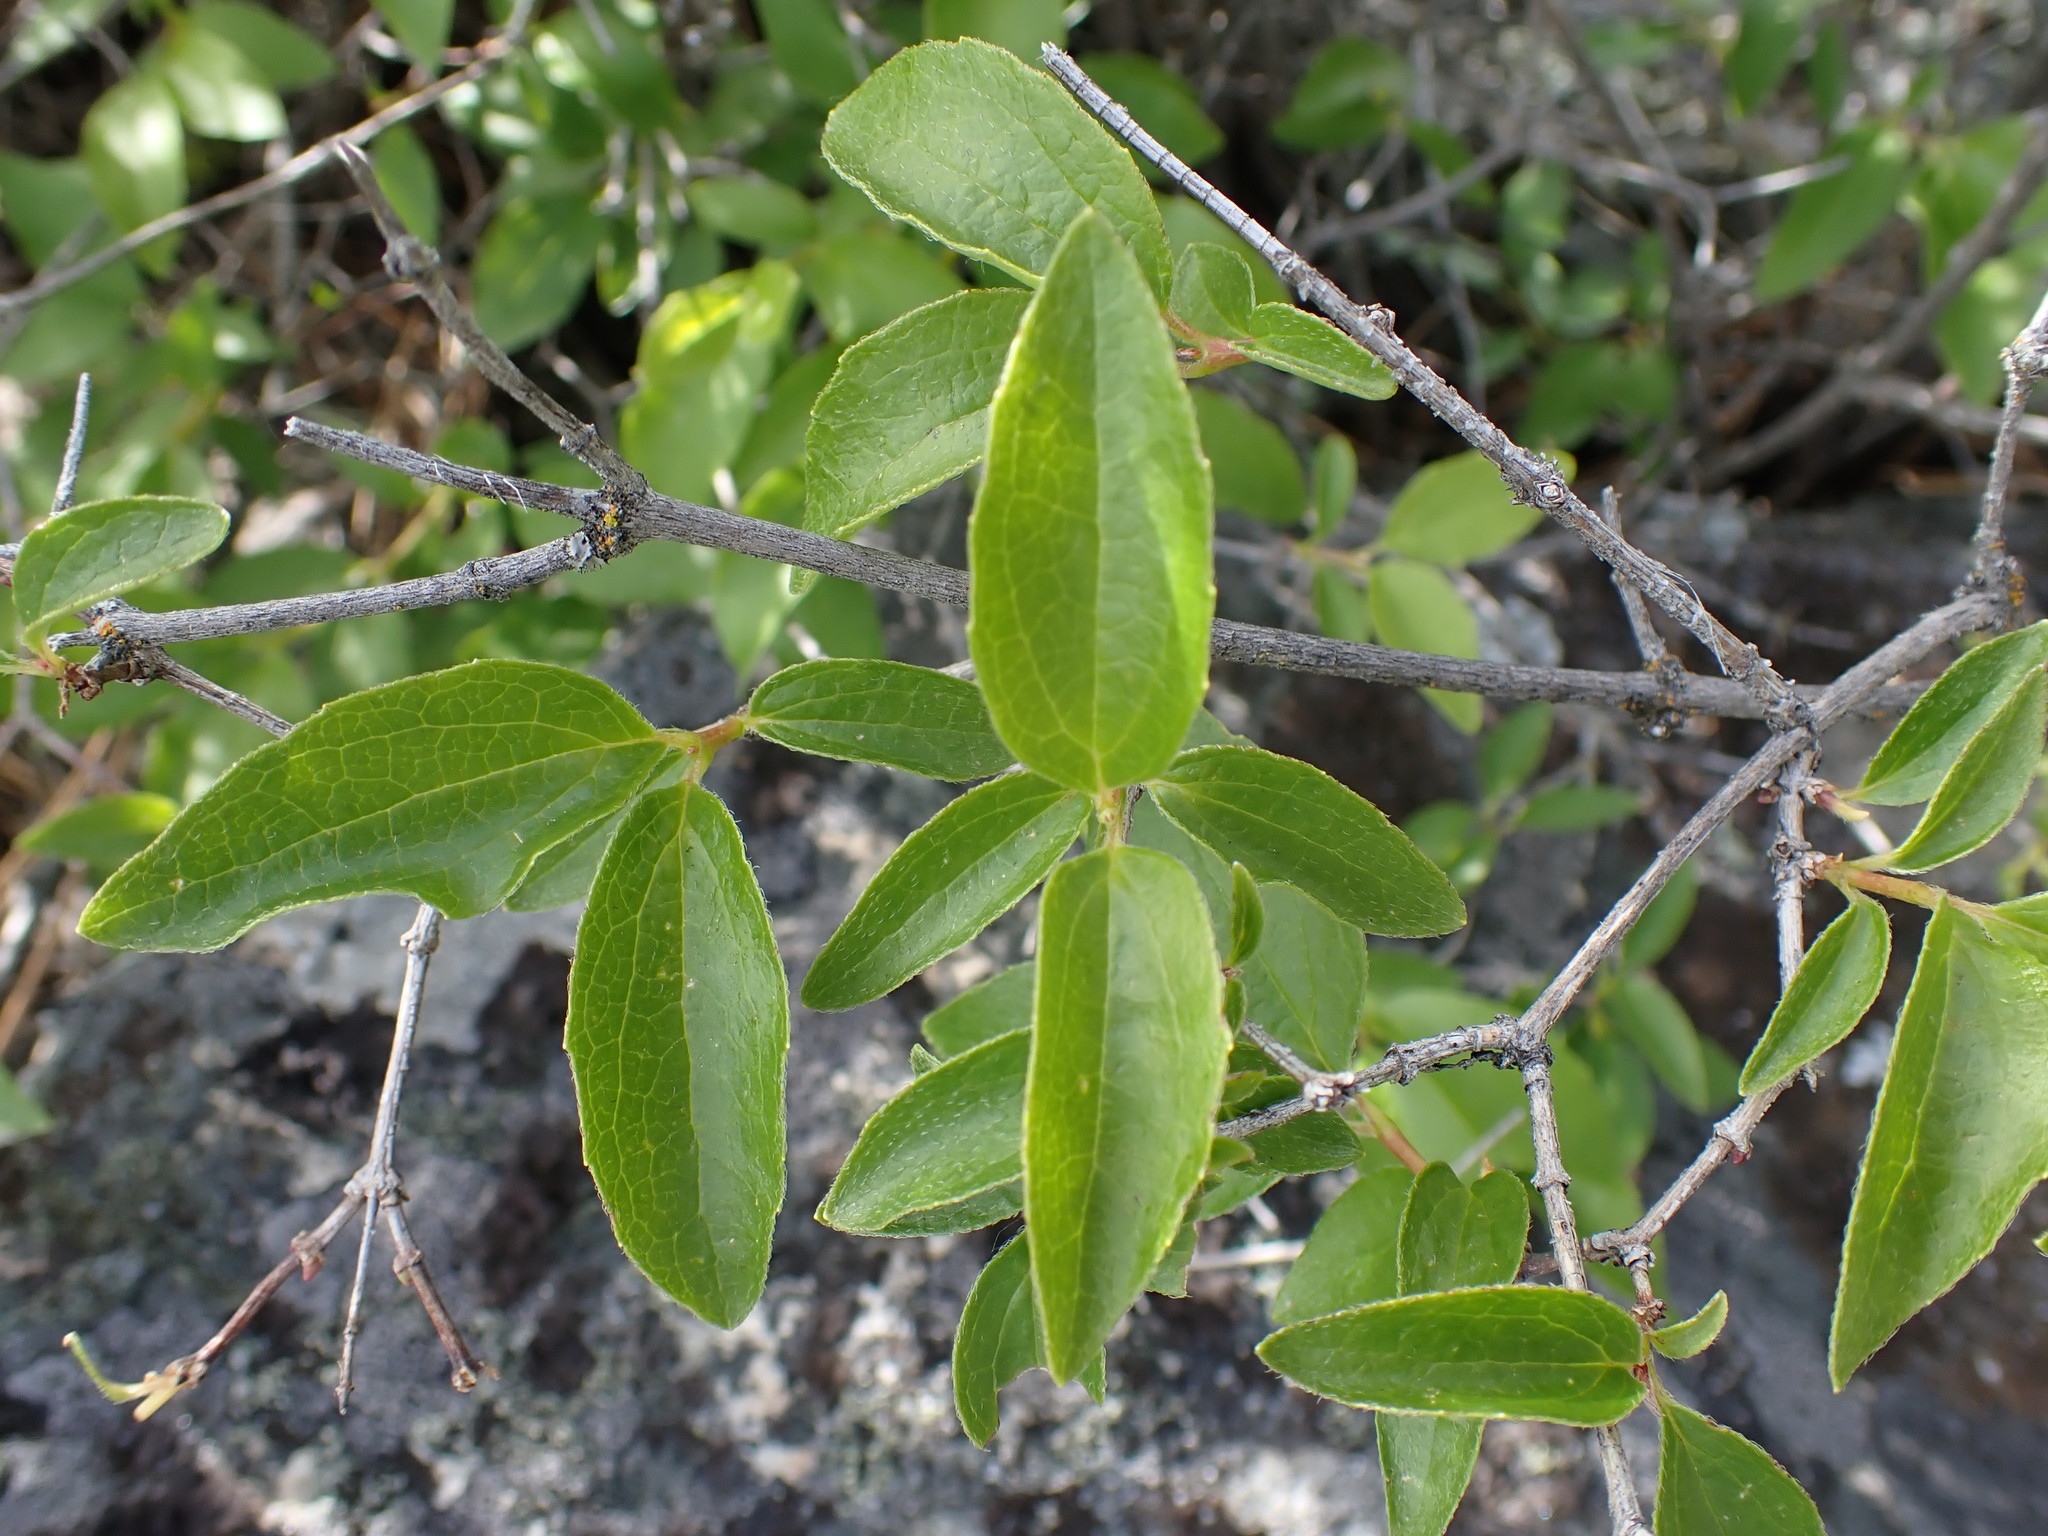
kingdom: Plantae
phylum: Tracheophyta
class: Magnoliopsida
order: Cornales
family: Hydrangeaceae
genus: Philadelphus
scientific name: Philadelphus lewisii
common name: Lewis's mock orange
